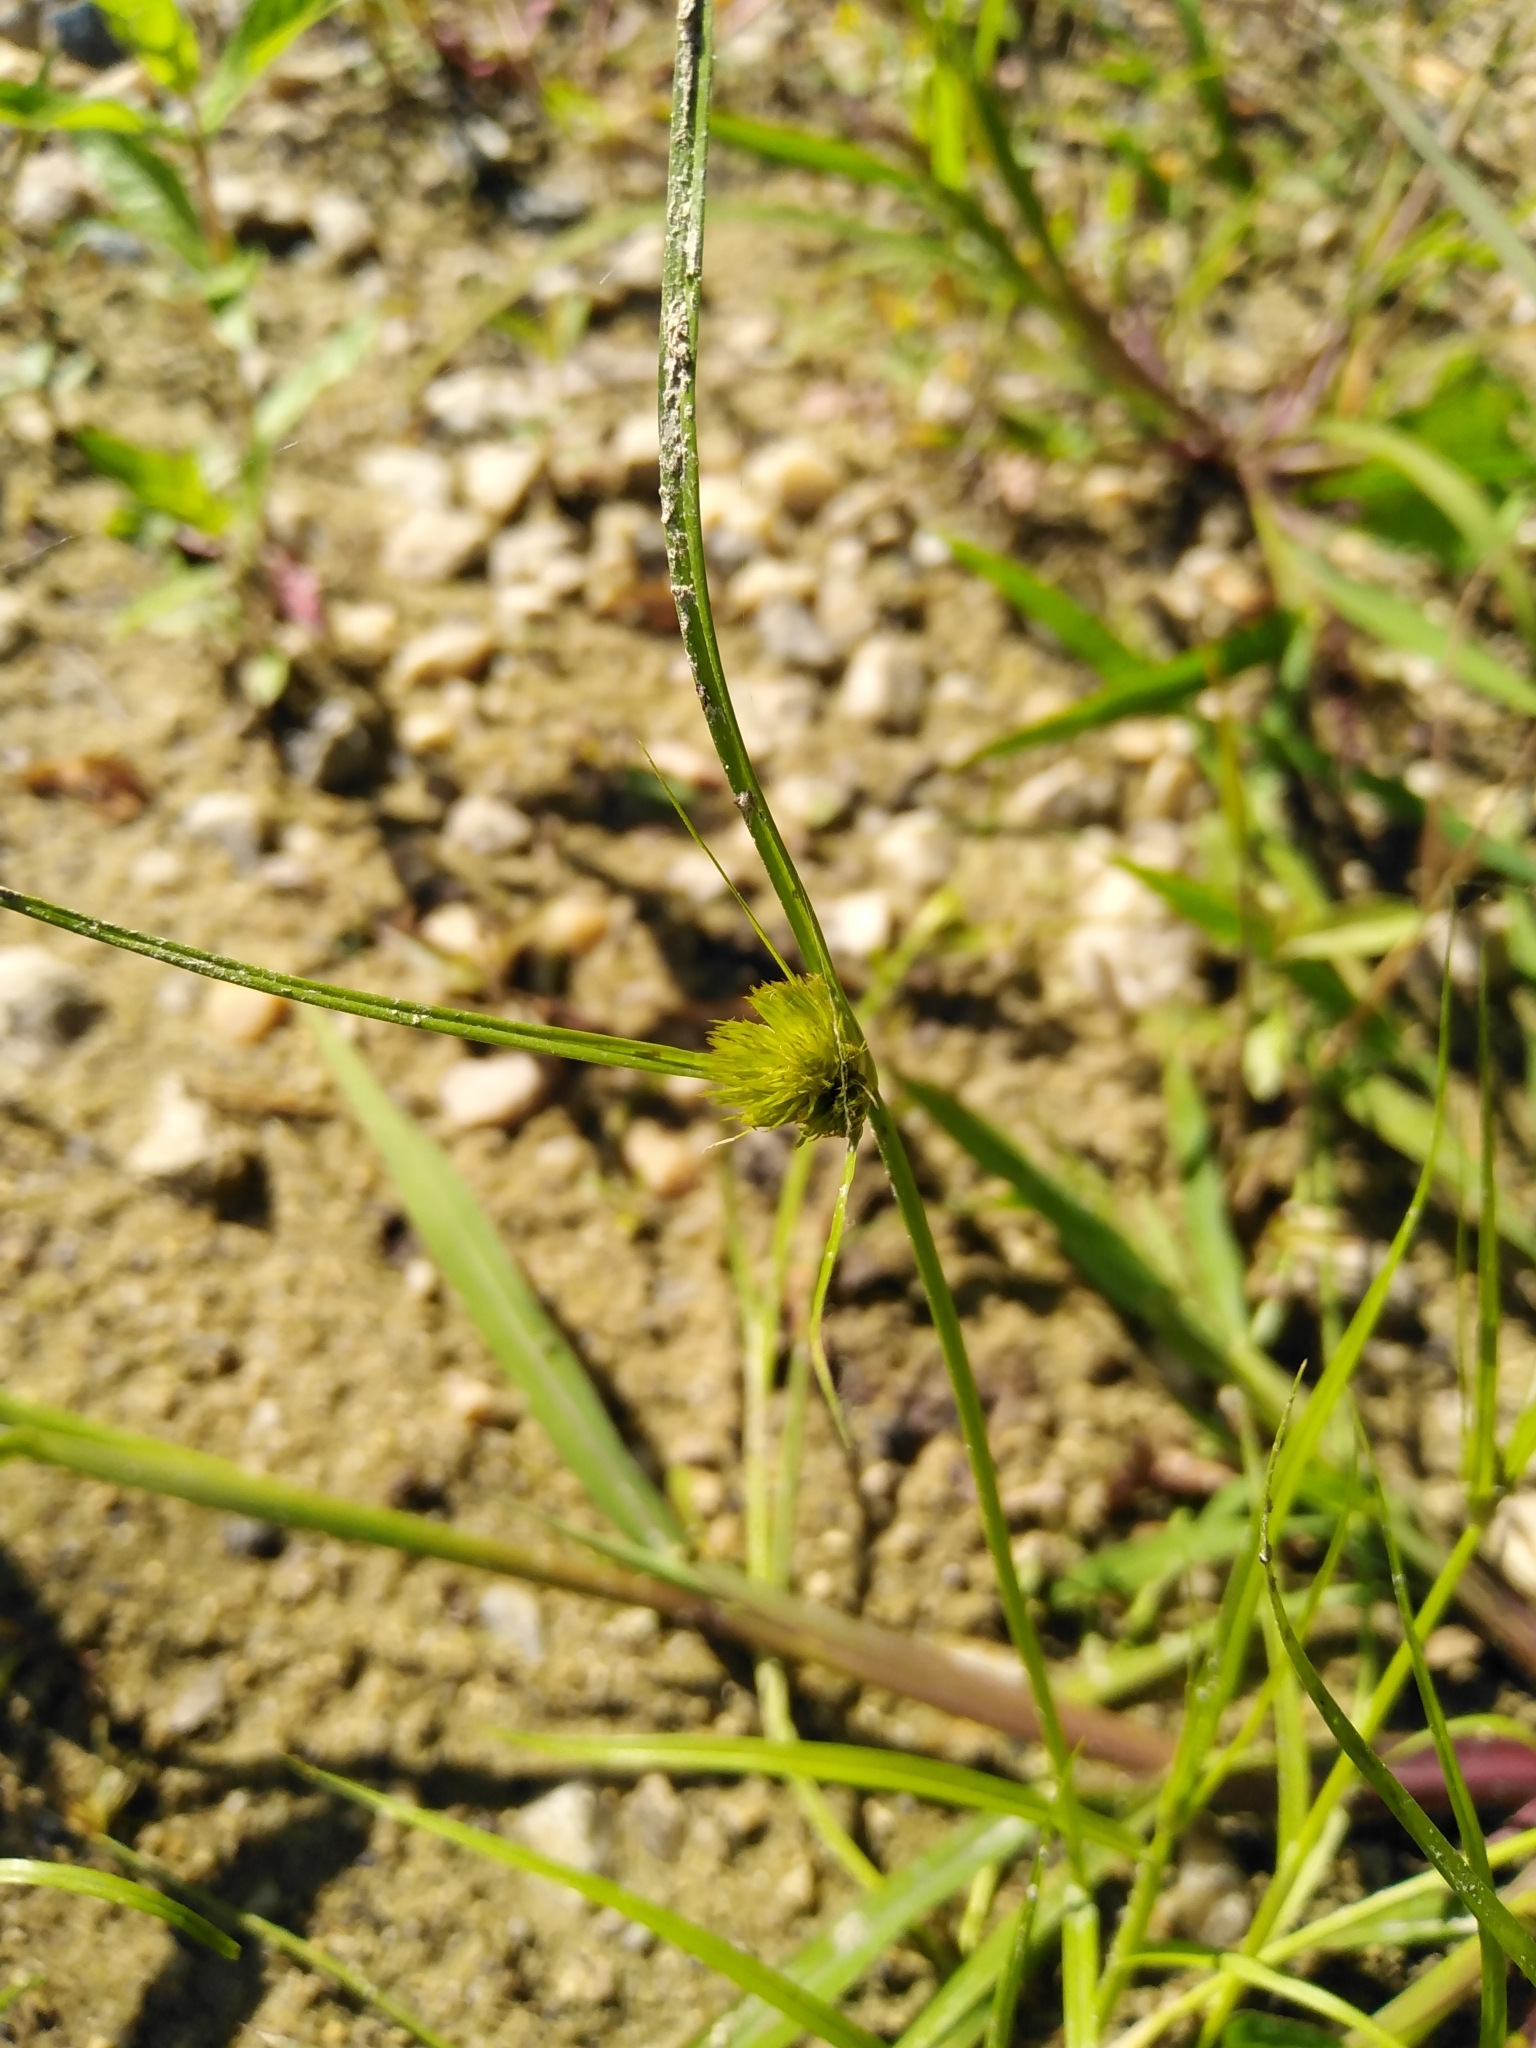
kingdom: Plantae
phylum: Tracheophyta
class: Liliopsida
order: Poales
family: Cyperaceae
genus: Carex
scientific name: Carex bohemica
